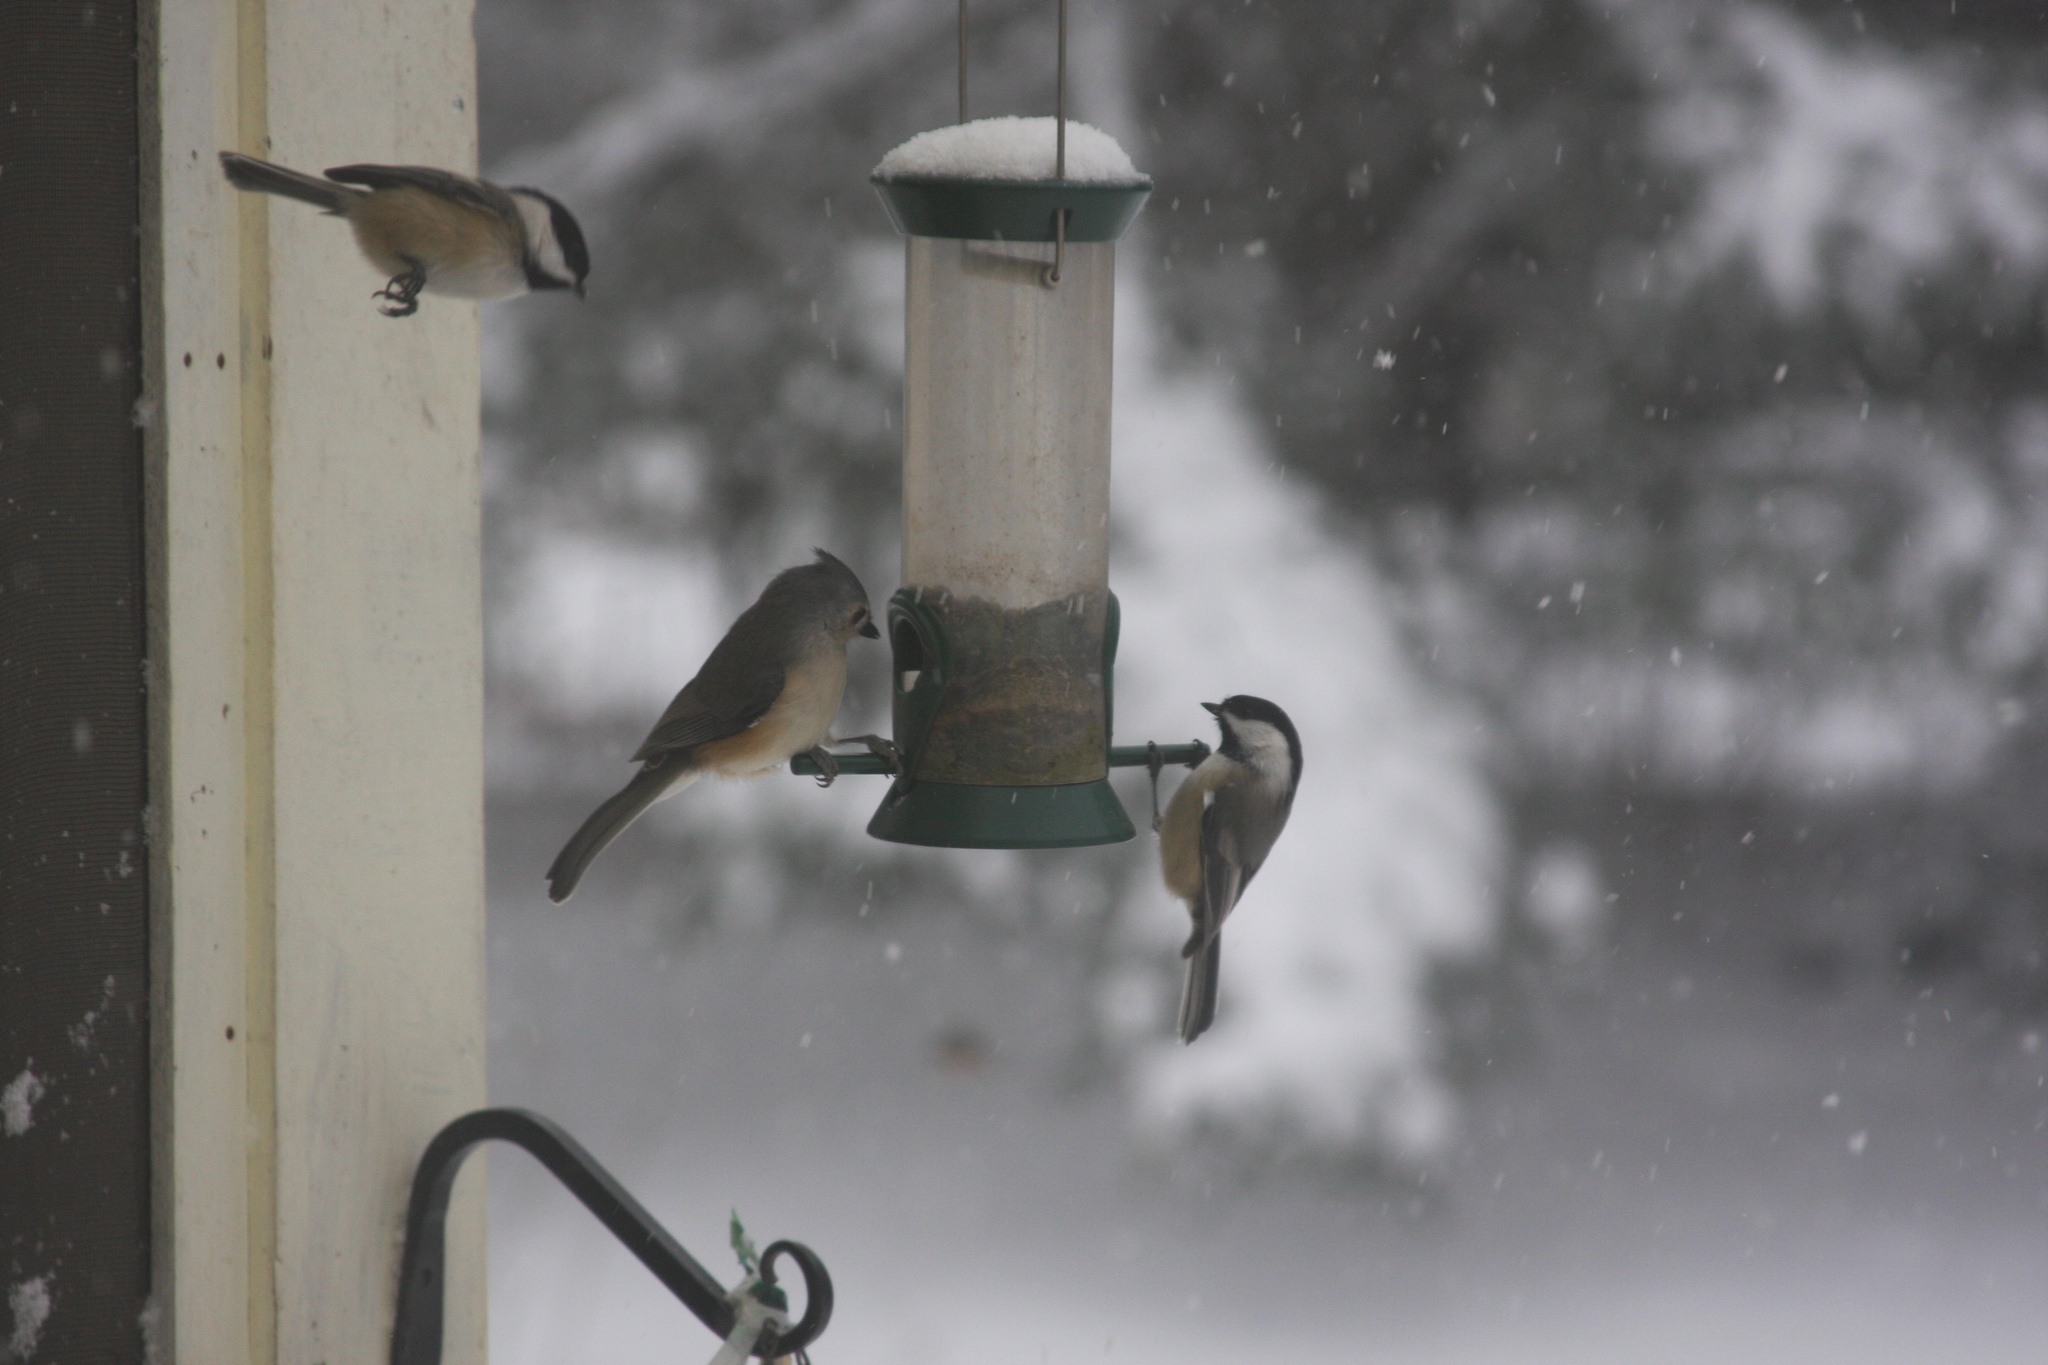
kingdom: Animalia
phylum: Chordata
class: Aves
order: Passeriformes
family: Paridae
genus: Baeolophus
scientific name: Baeolophus bicolor
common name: Tufted titmouse
